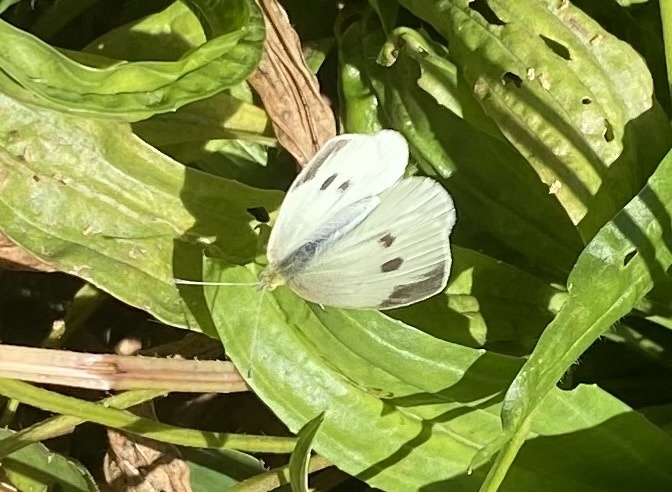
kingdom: Animalia
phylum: Arthropoda
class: Insecta
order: Lepidoptera
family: Pieridae
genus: Pieris
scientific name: Pieris rapae
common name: Small white
